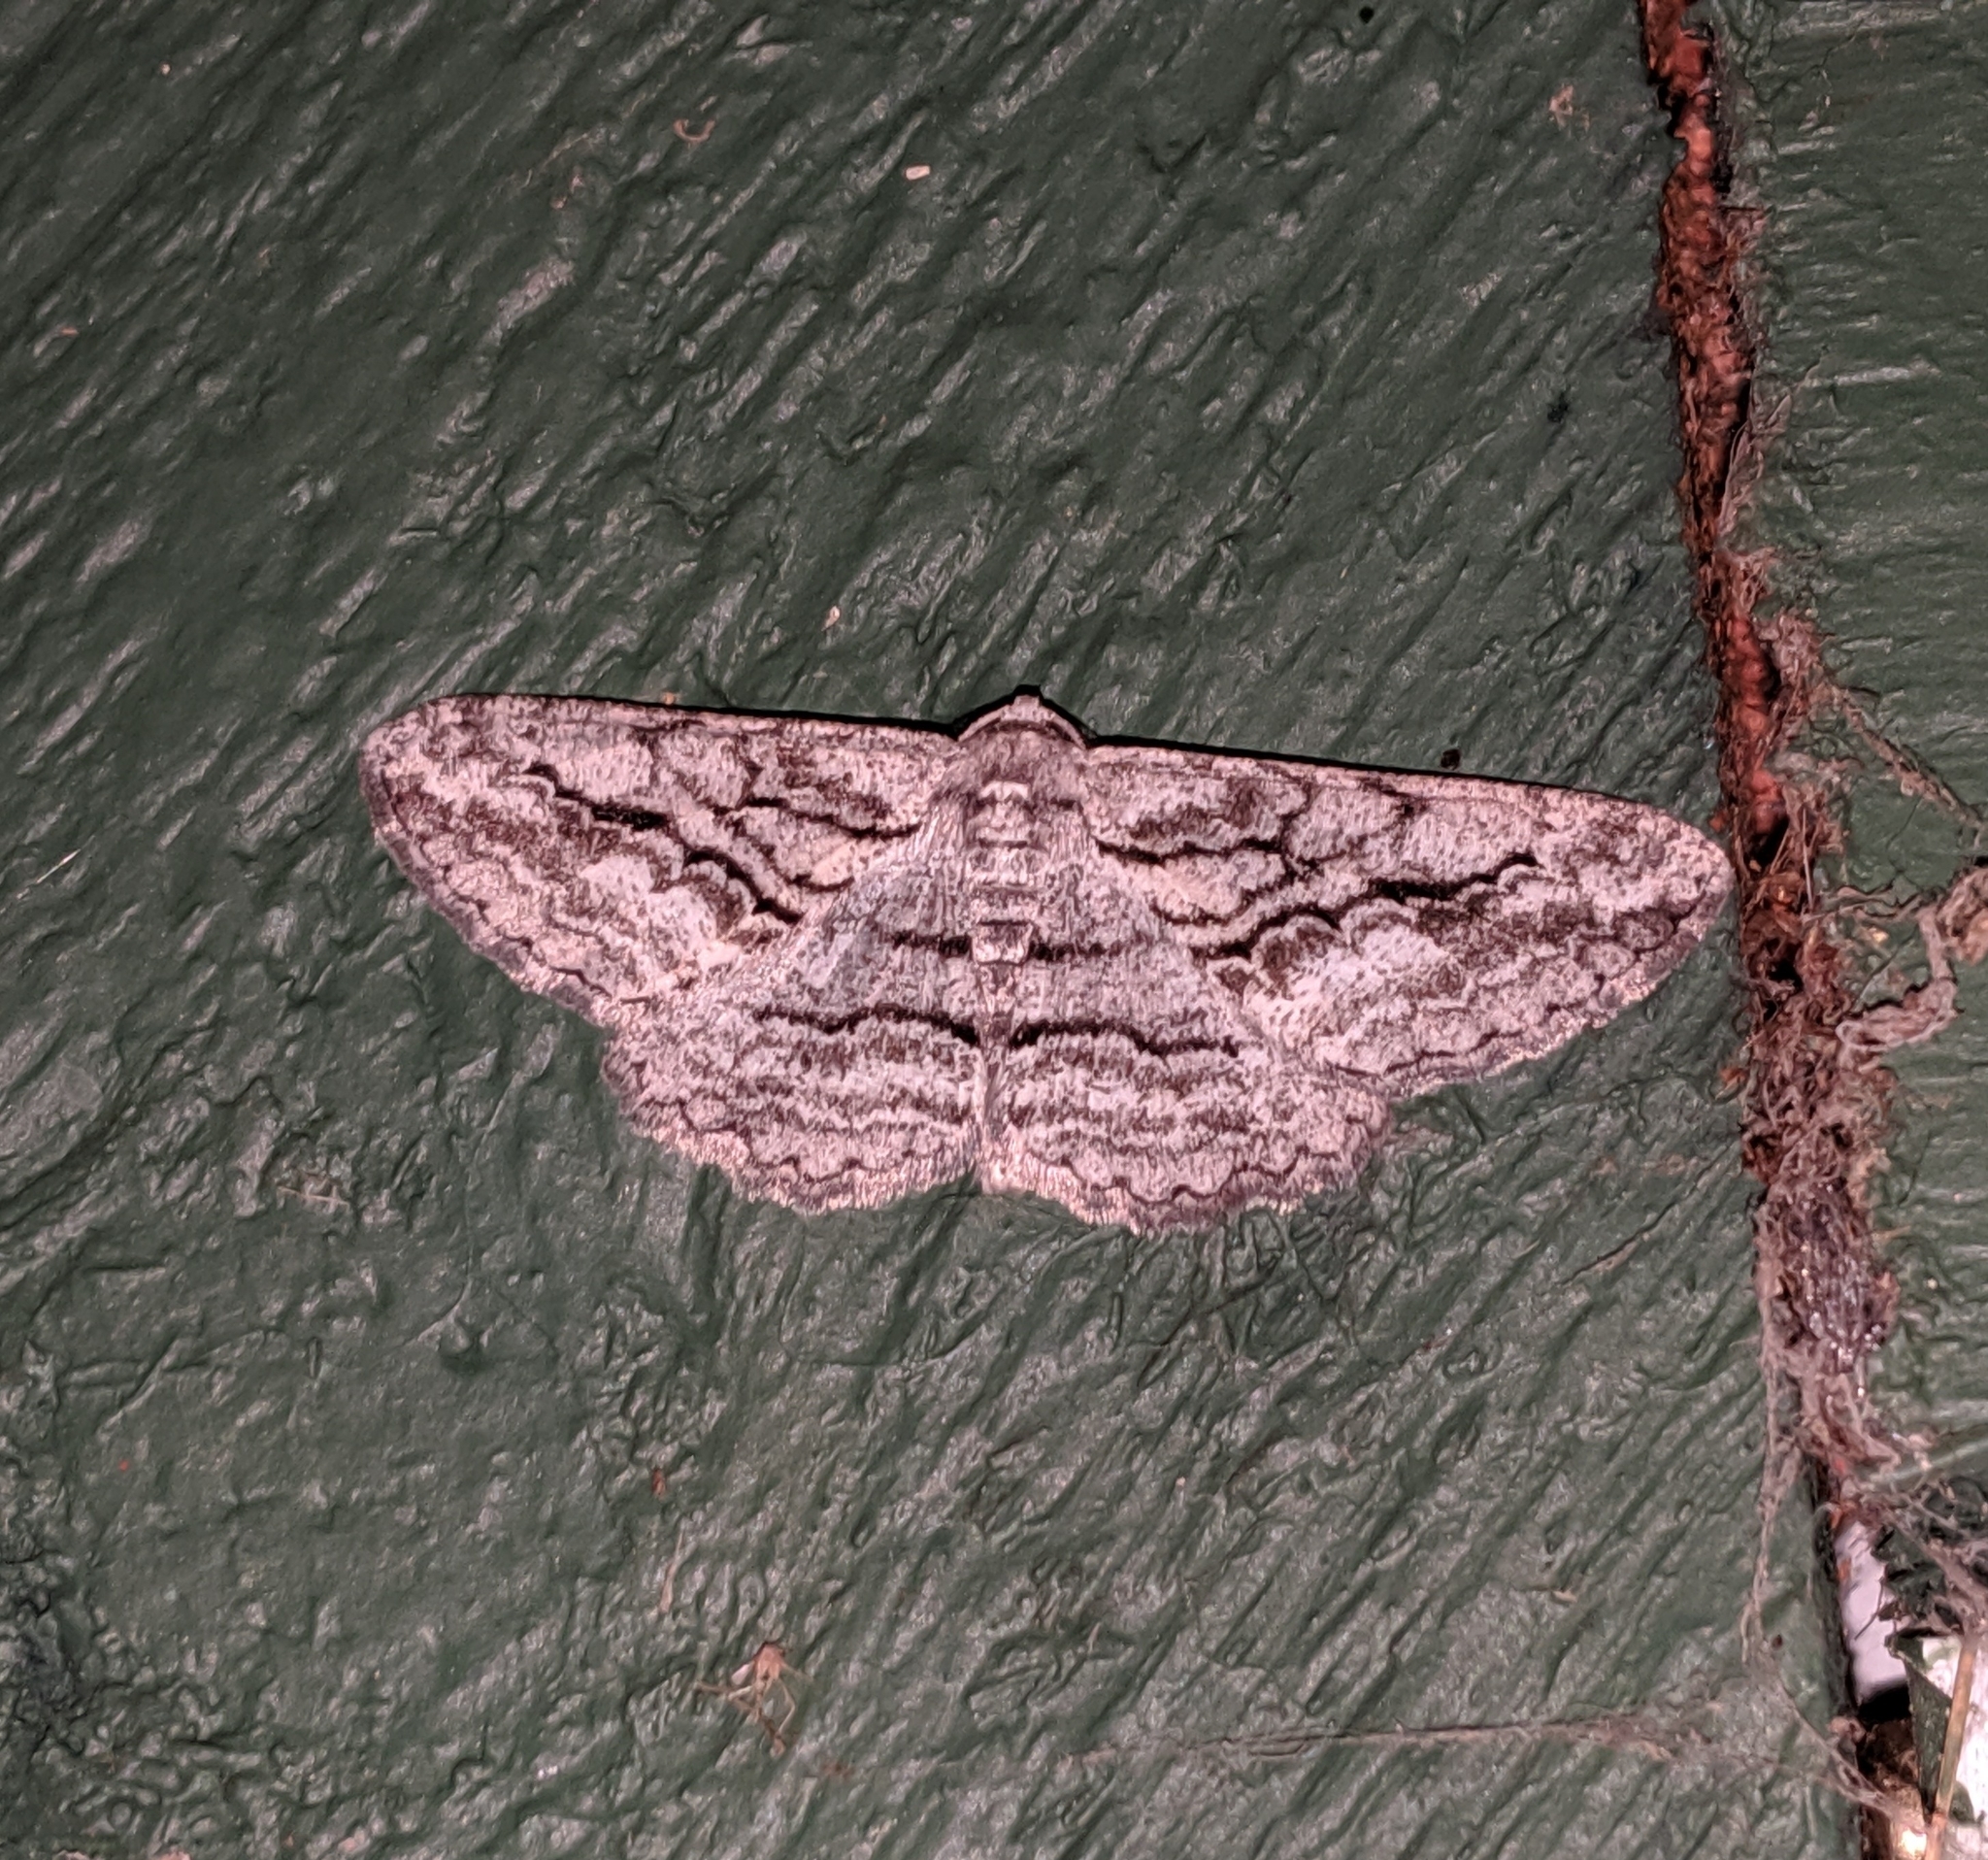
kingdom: Animalia
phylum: Arthropoda
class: Insecta
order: Lepidoptera
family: Geometridae
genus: Stenoporpia
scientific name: Stenoporpia excelsaria
